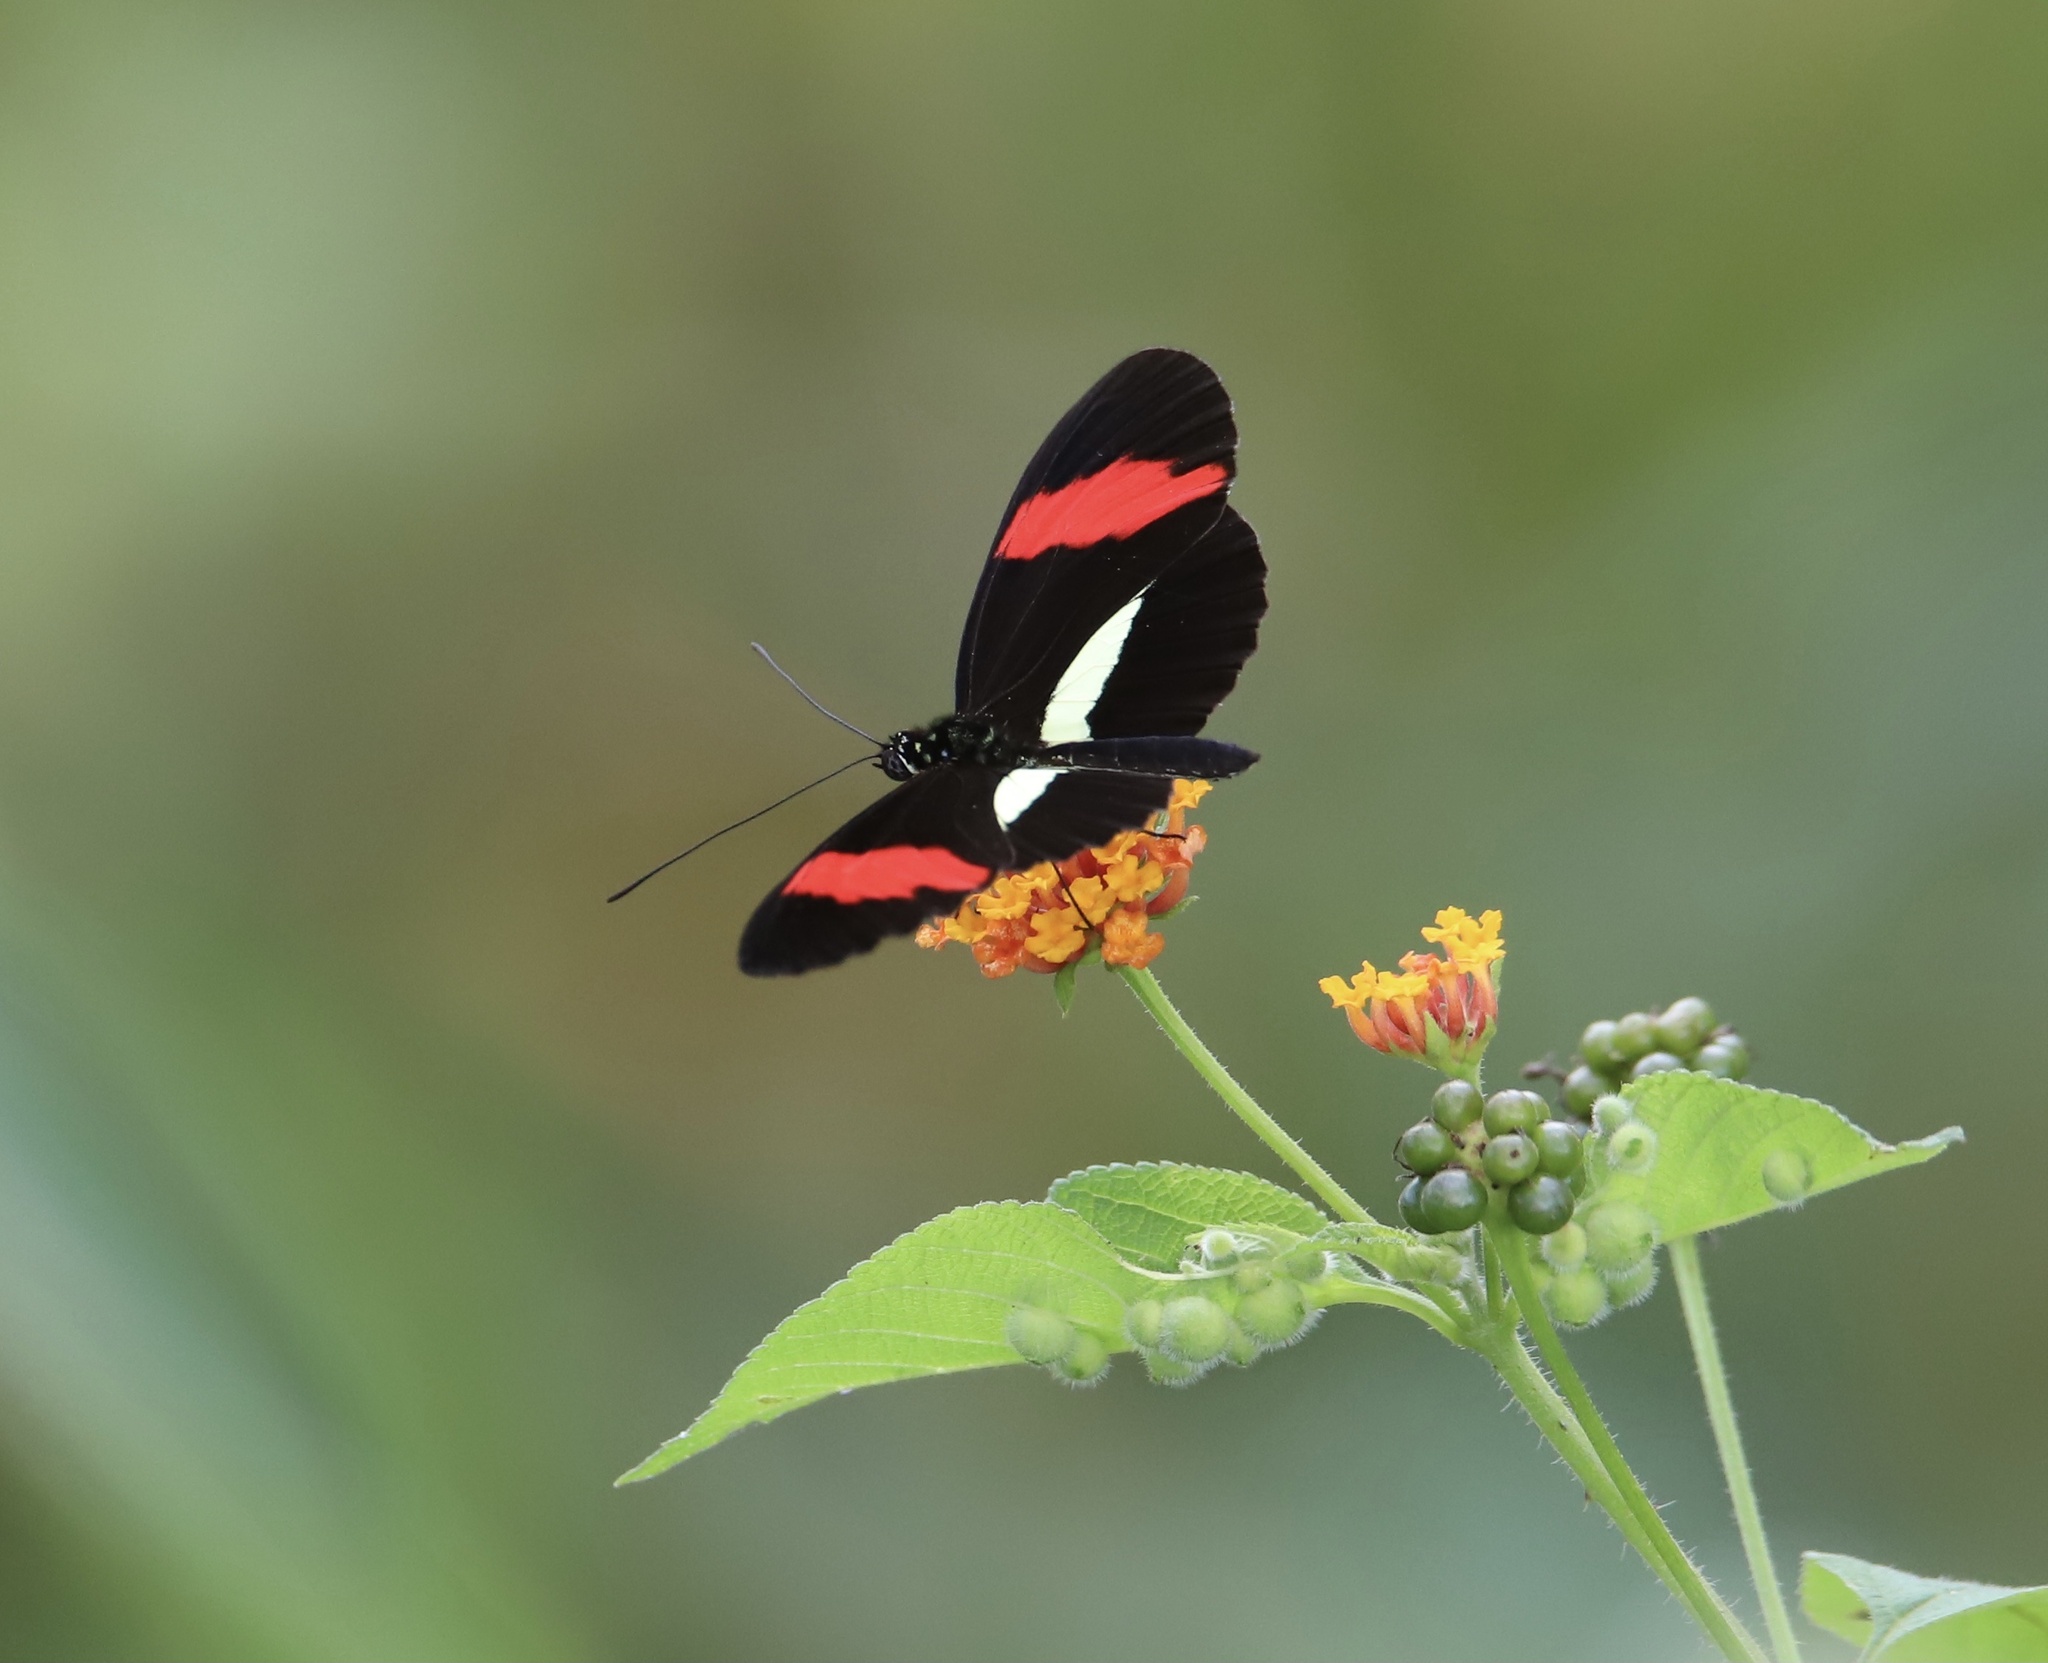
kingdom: Animalia
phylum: Arthropoda
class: Insecta
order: Lepidoptera
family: Nymphalidae
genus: Heliconius
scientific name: Heliconius erato
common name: Common patch longwing
